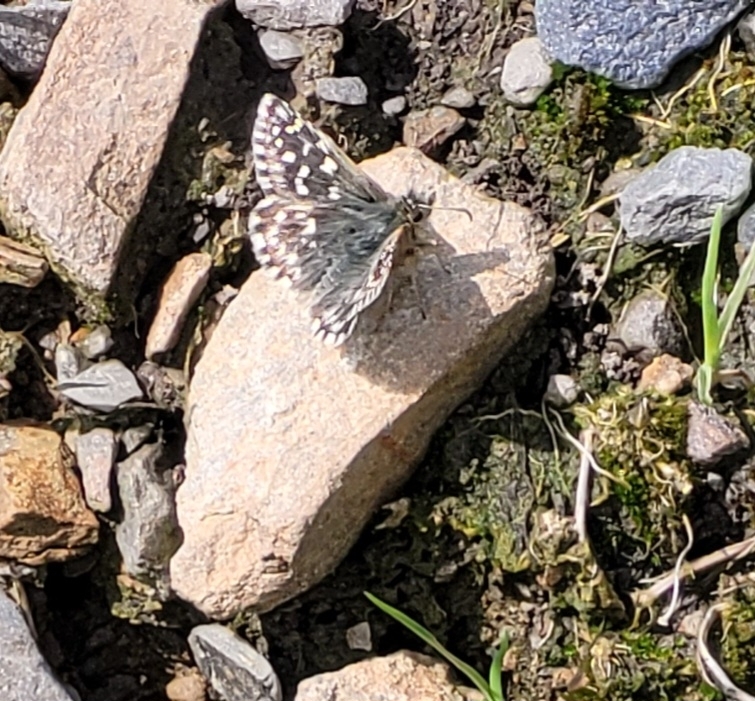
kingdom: Animalia
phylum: Arthropoda
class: Insecta
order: Lepidoptera
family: Hesperiidae
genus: Pyrgus
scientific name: Pyrgus malvae
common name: Grizzled skipper
